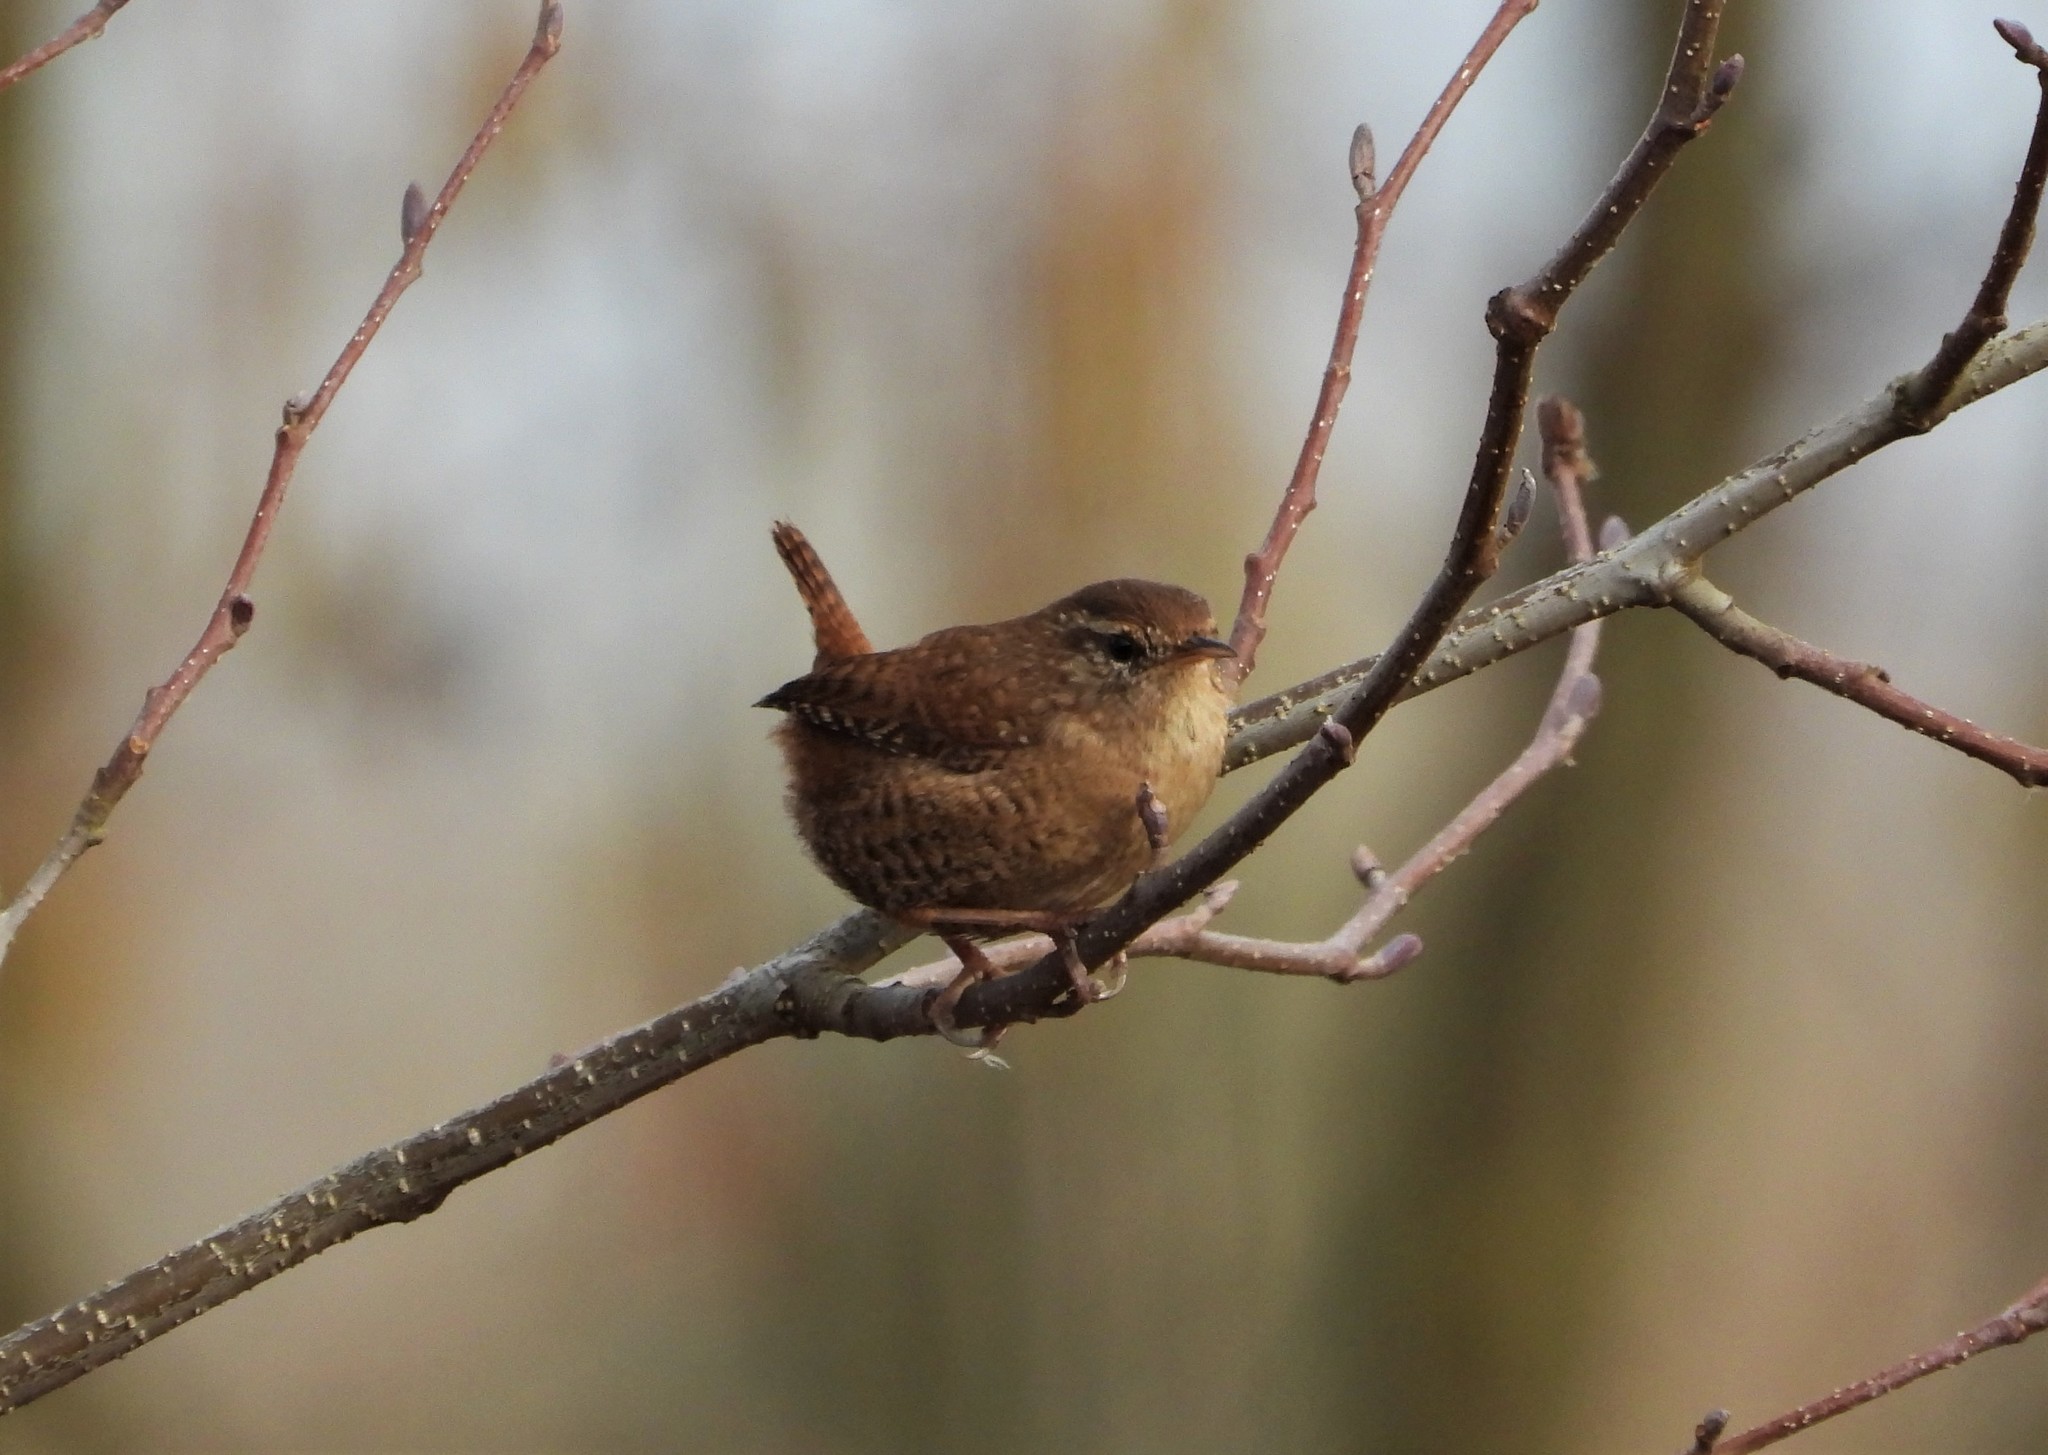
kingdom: Animalia
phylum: Chordata
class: Aves
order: Passeriformes
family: Troglodytidae
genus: Troglodytes
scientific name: Troglodytes troglodytes
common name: Eurasian wren
